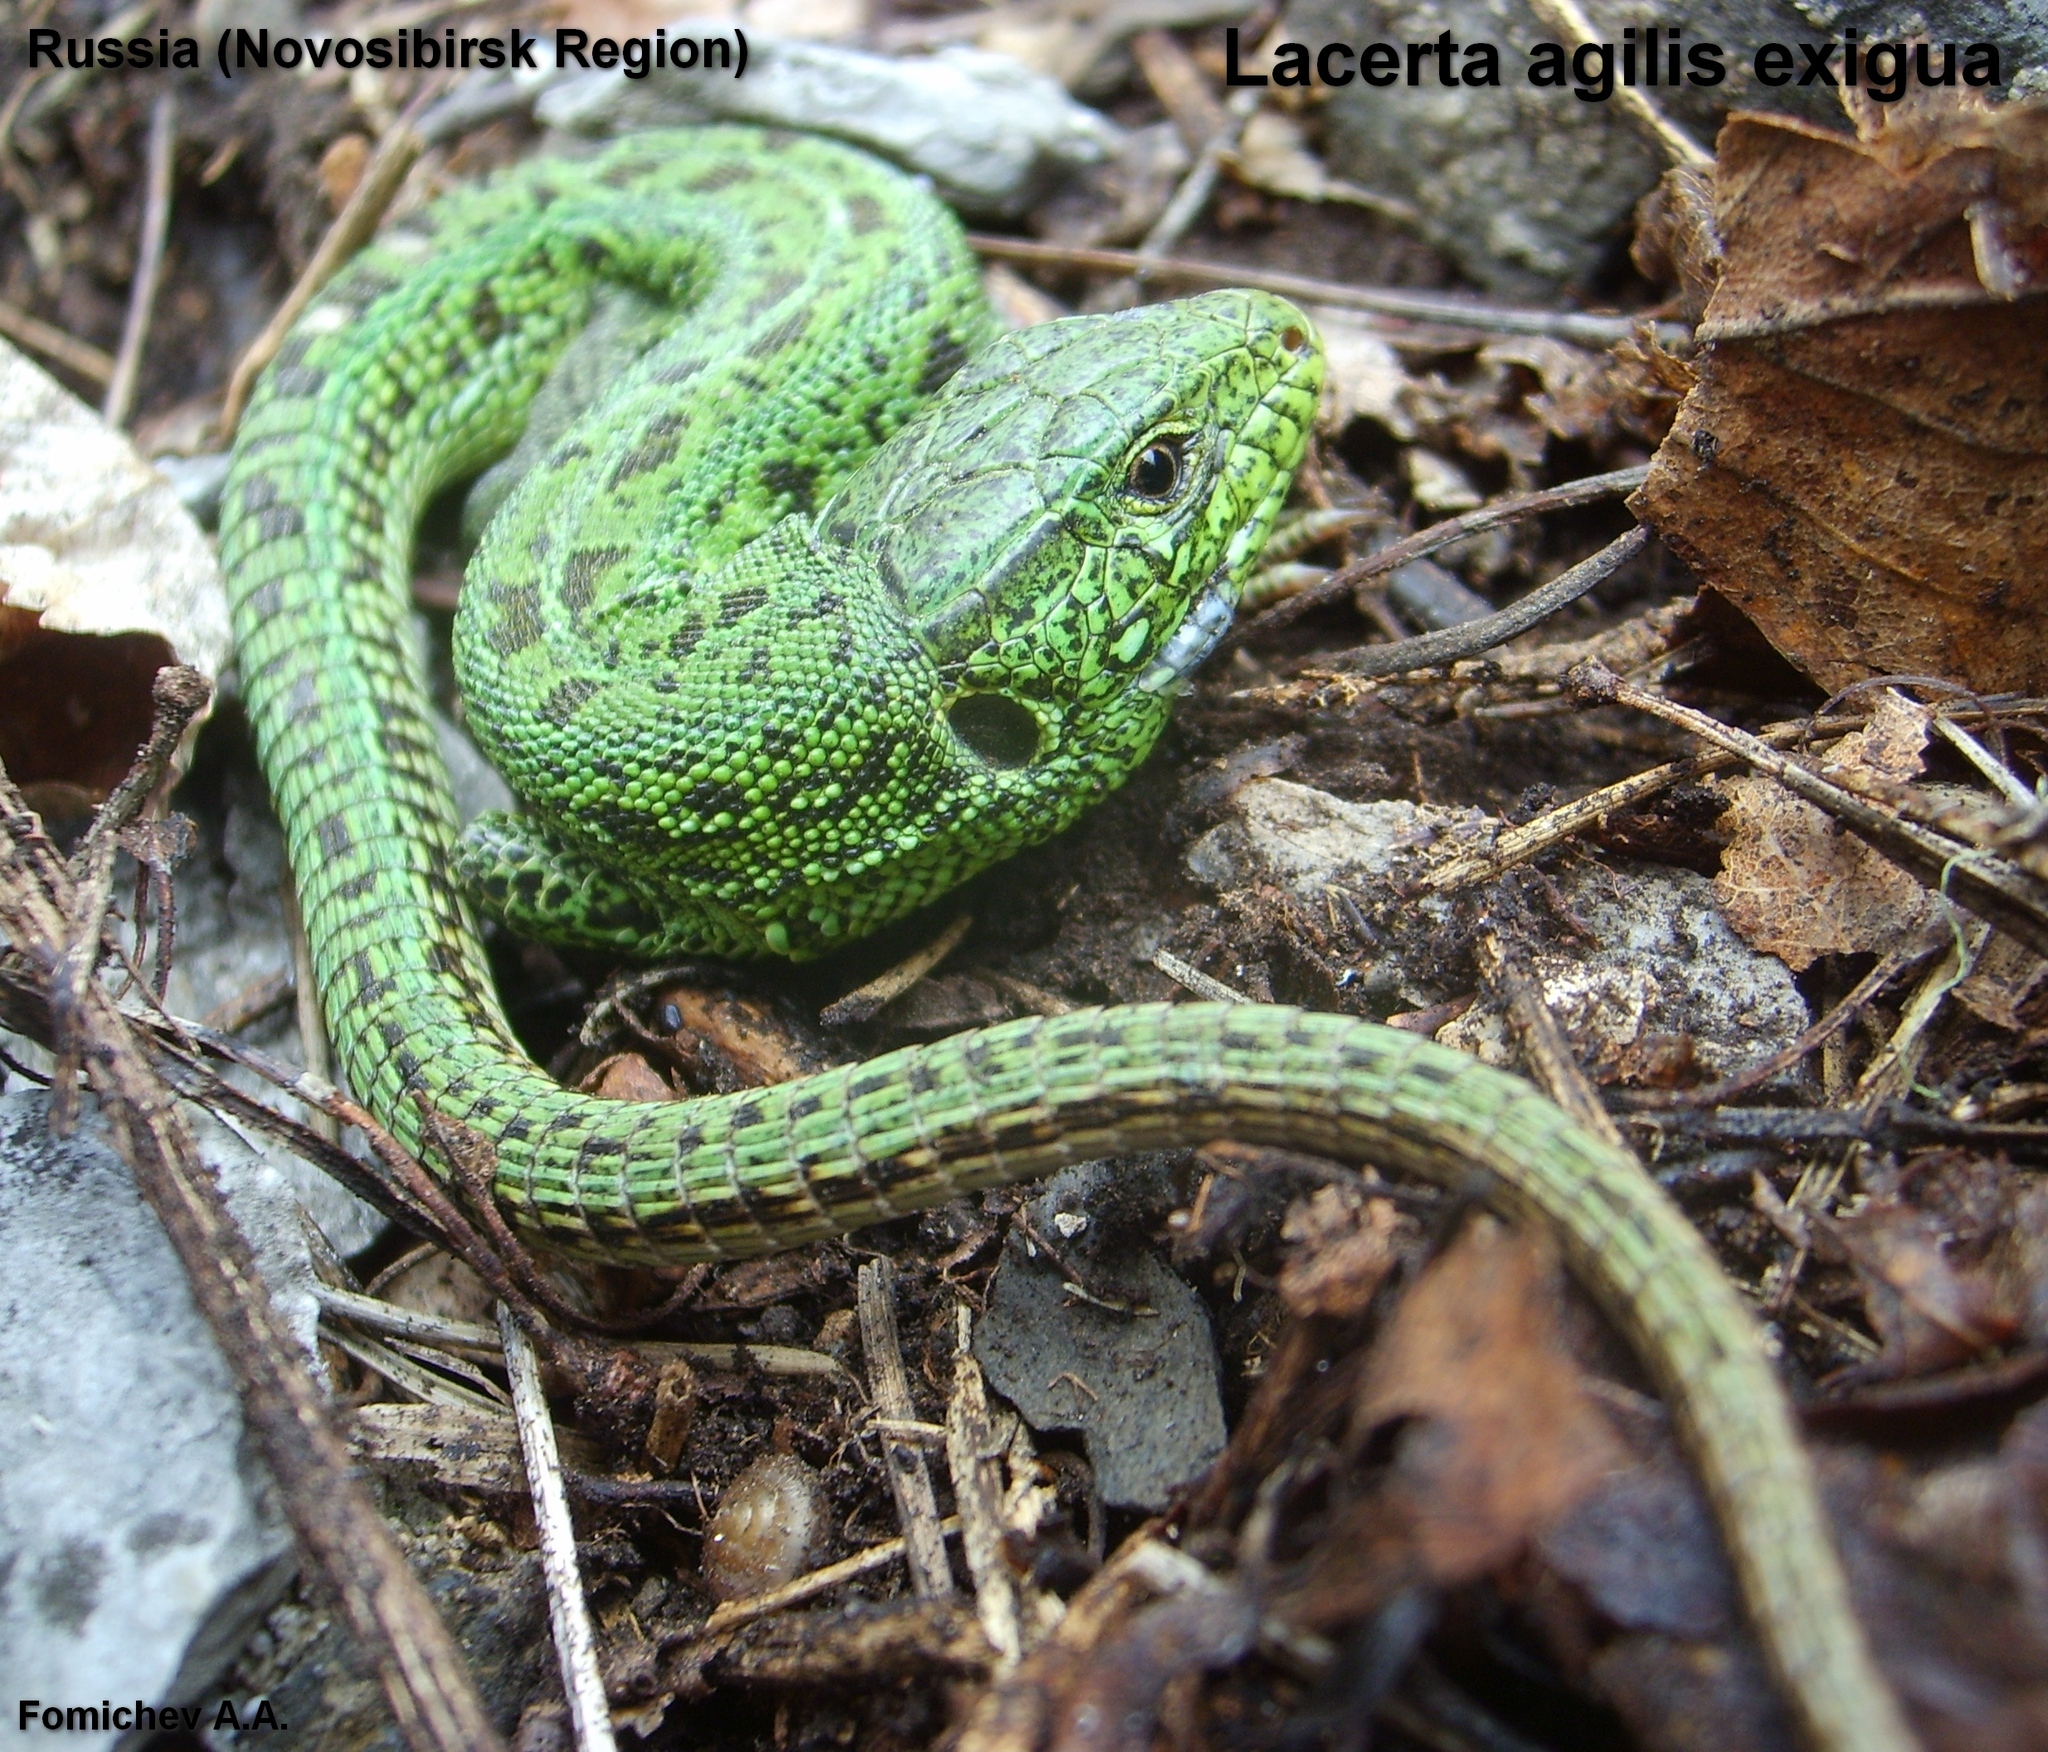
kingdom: Animalia
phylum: Chordata
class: Squamata
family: Lacertidae
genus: Lacerta
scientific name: Lacerta agilis
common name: Sand lizard
